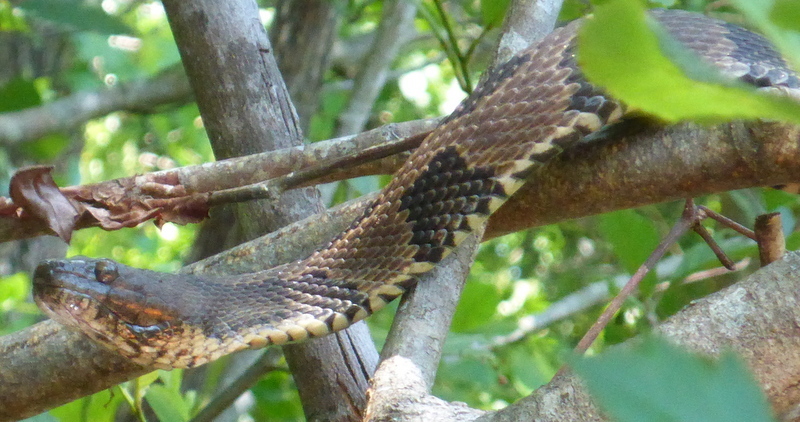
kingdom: Animalia
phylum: Chordata
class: Squamata
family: Colubridae
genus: Nerodia
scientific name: Nerodia taxispilota
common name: Brown water snake
